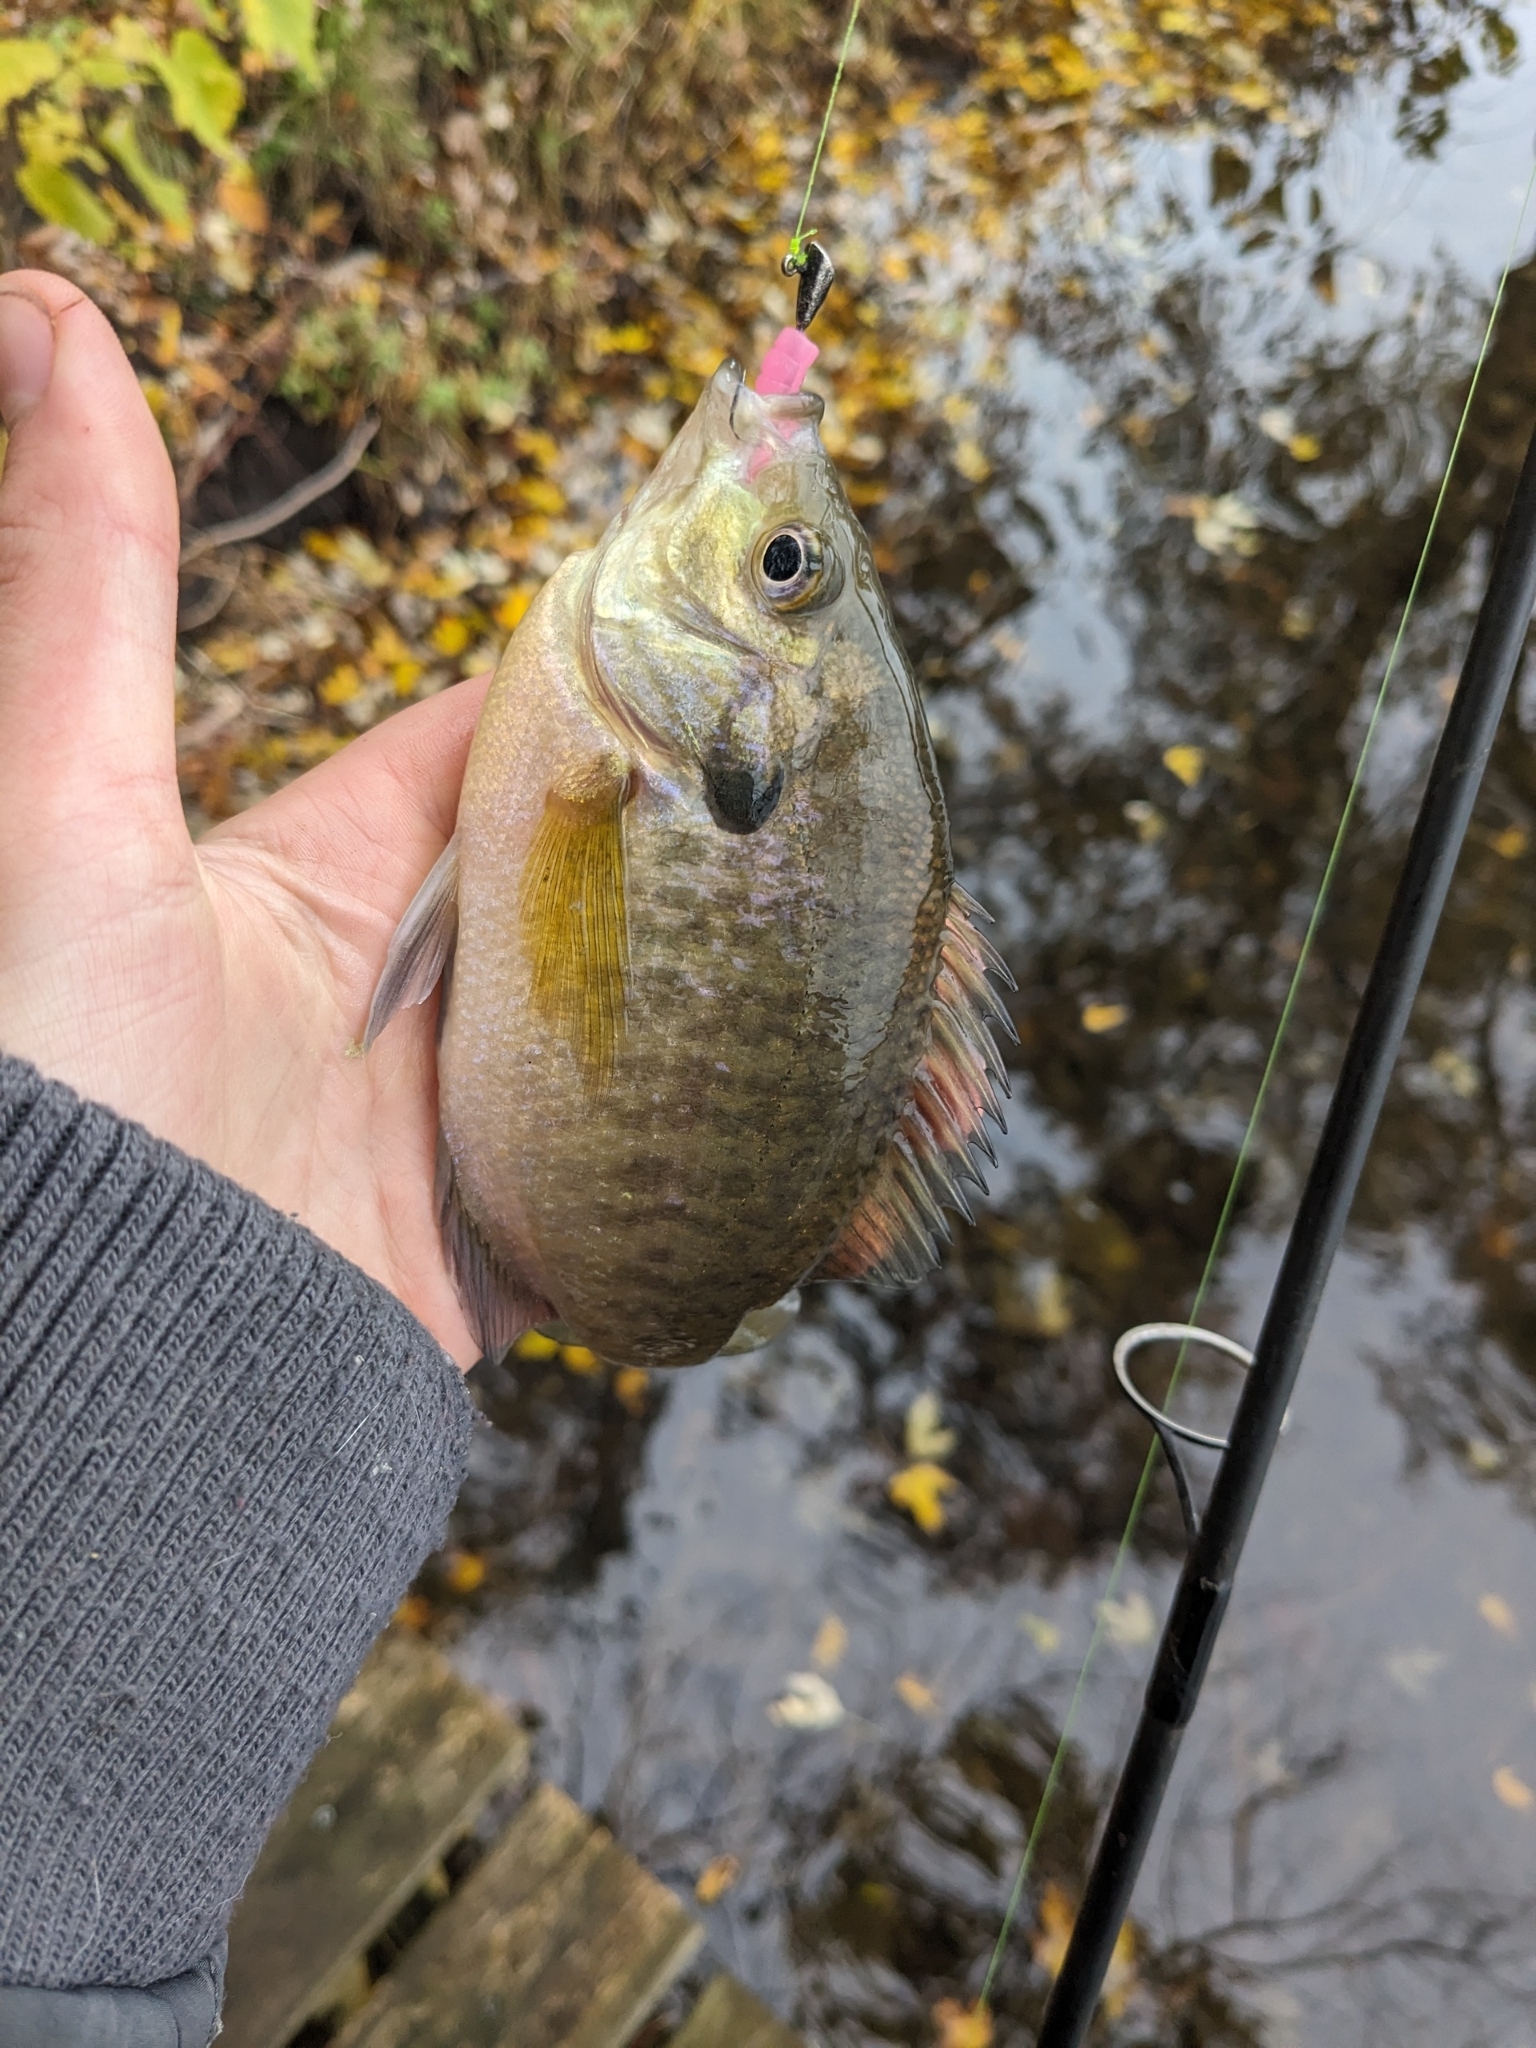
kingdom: Animalia
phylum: Chordata
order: Perciformes
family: Centrarchidae
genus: Lepomis
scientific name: Lepomis macrochirus
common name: Bluegill
